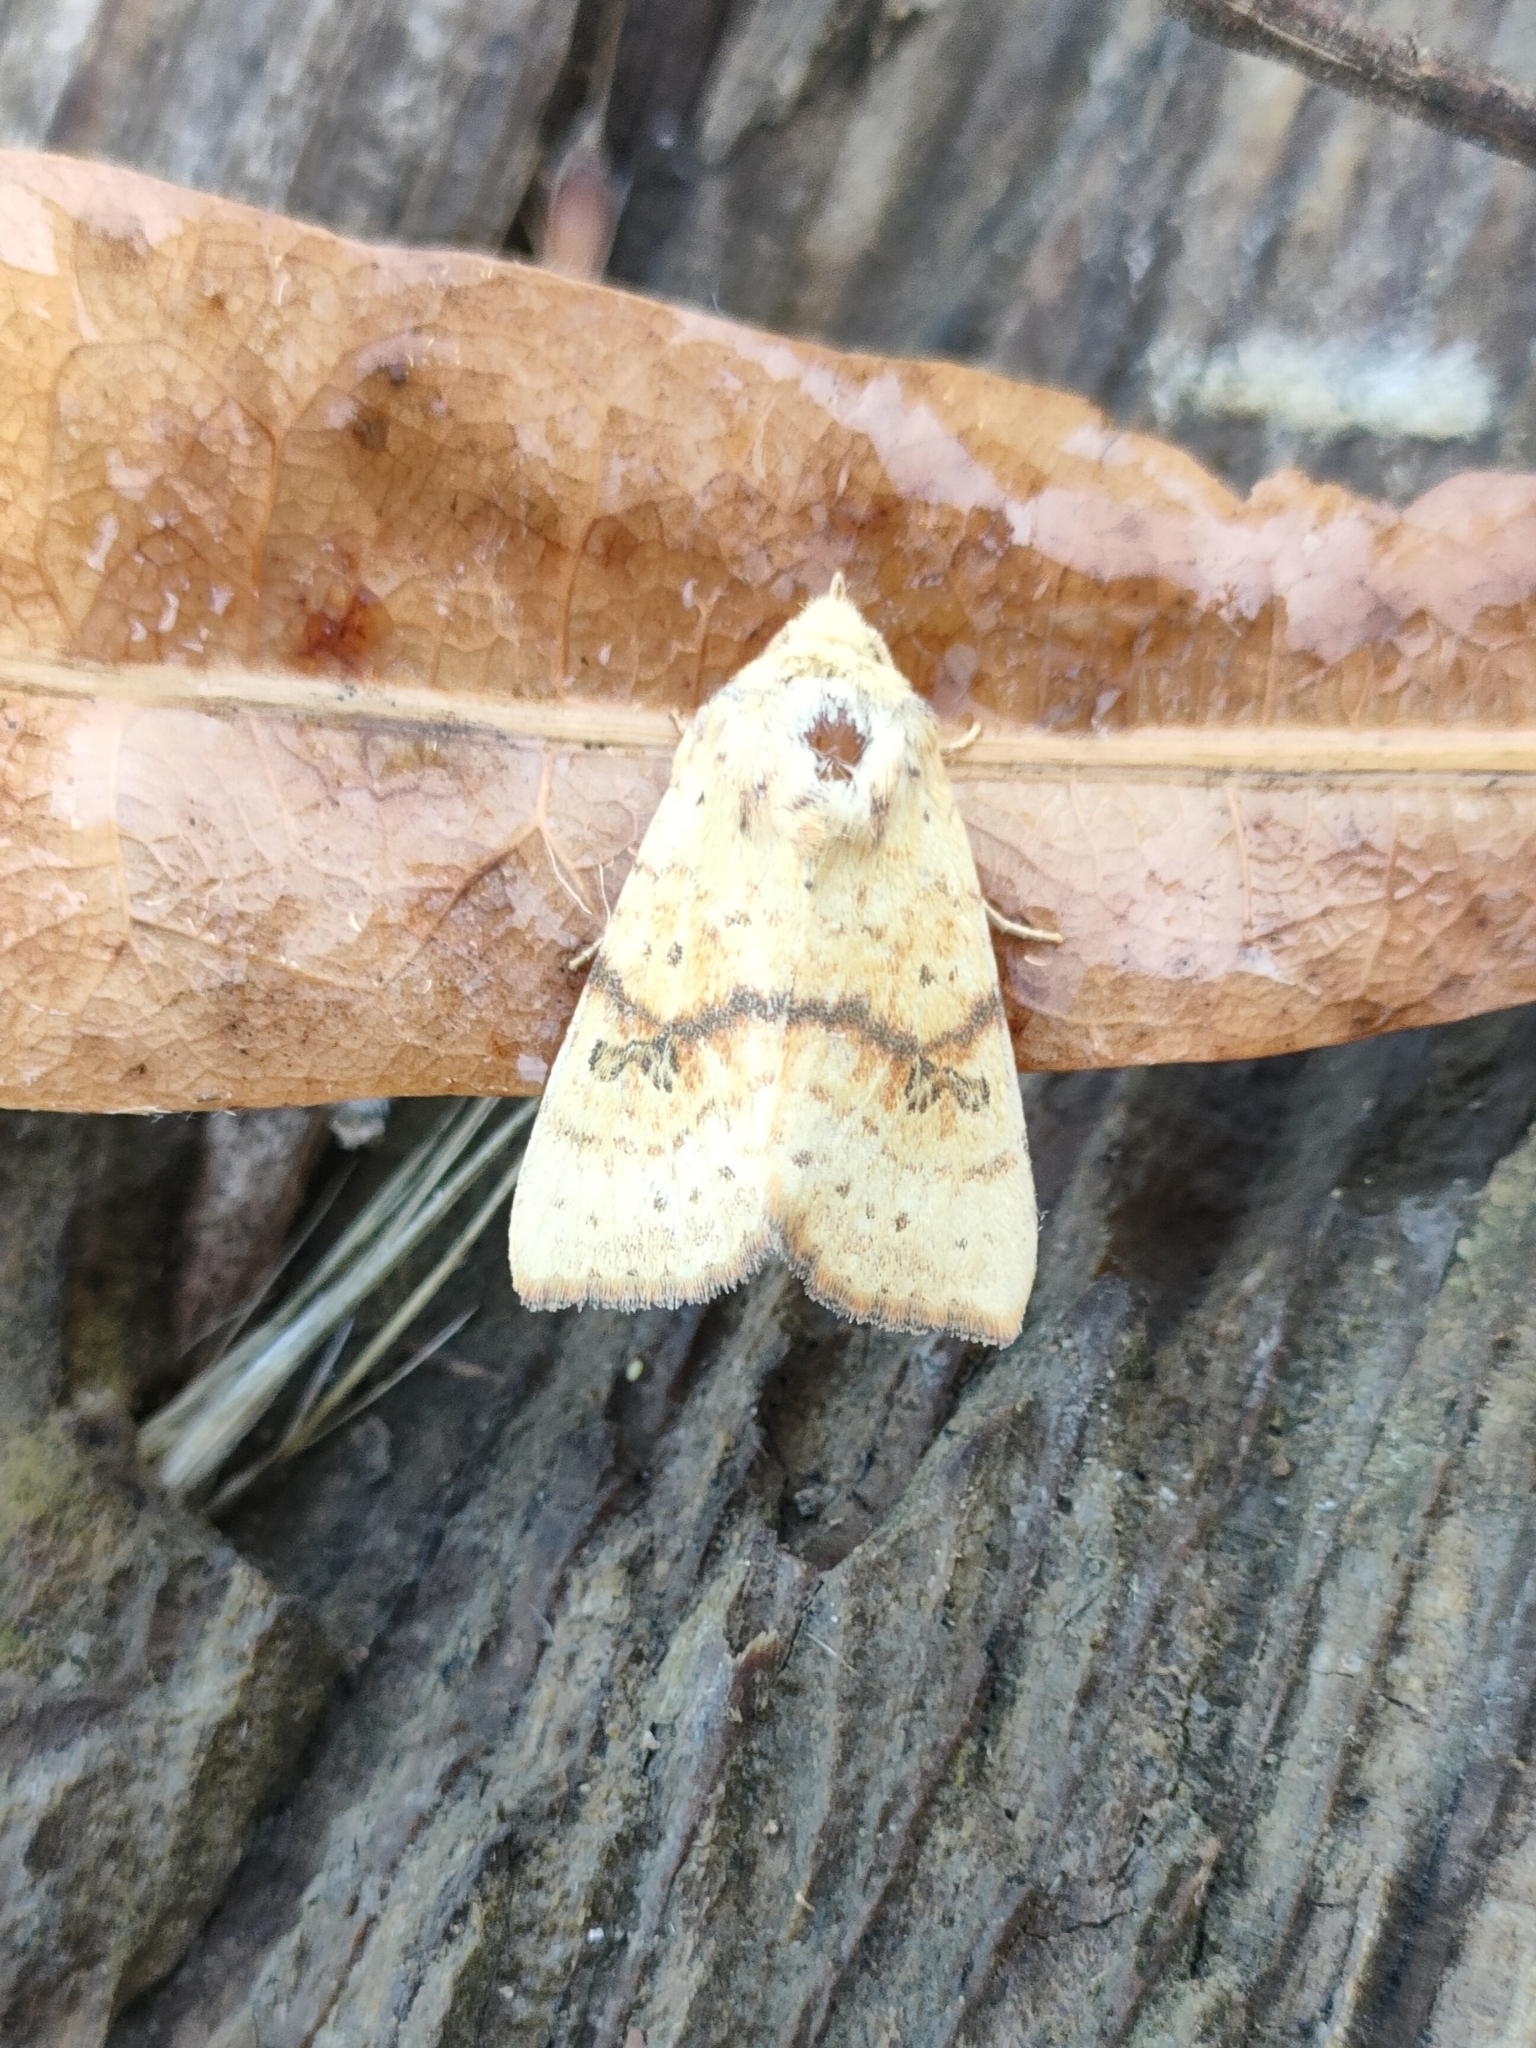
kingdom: Animalia
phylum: Arthropoda
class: Insecta
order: Lepidoptera
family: Noctuidae
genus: Tiliacea
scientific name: Tiliacea sulphurago
